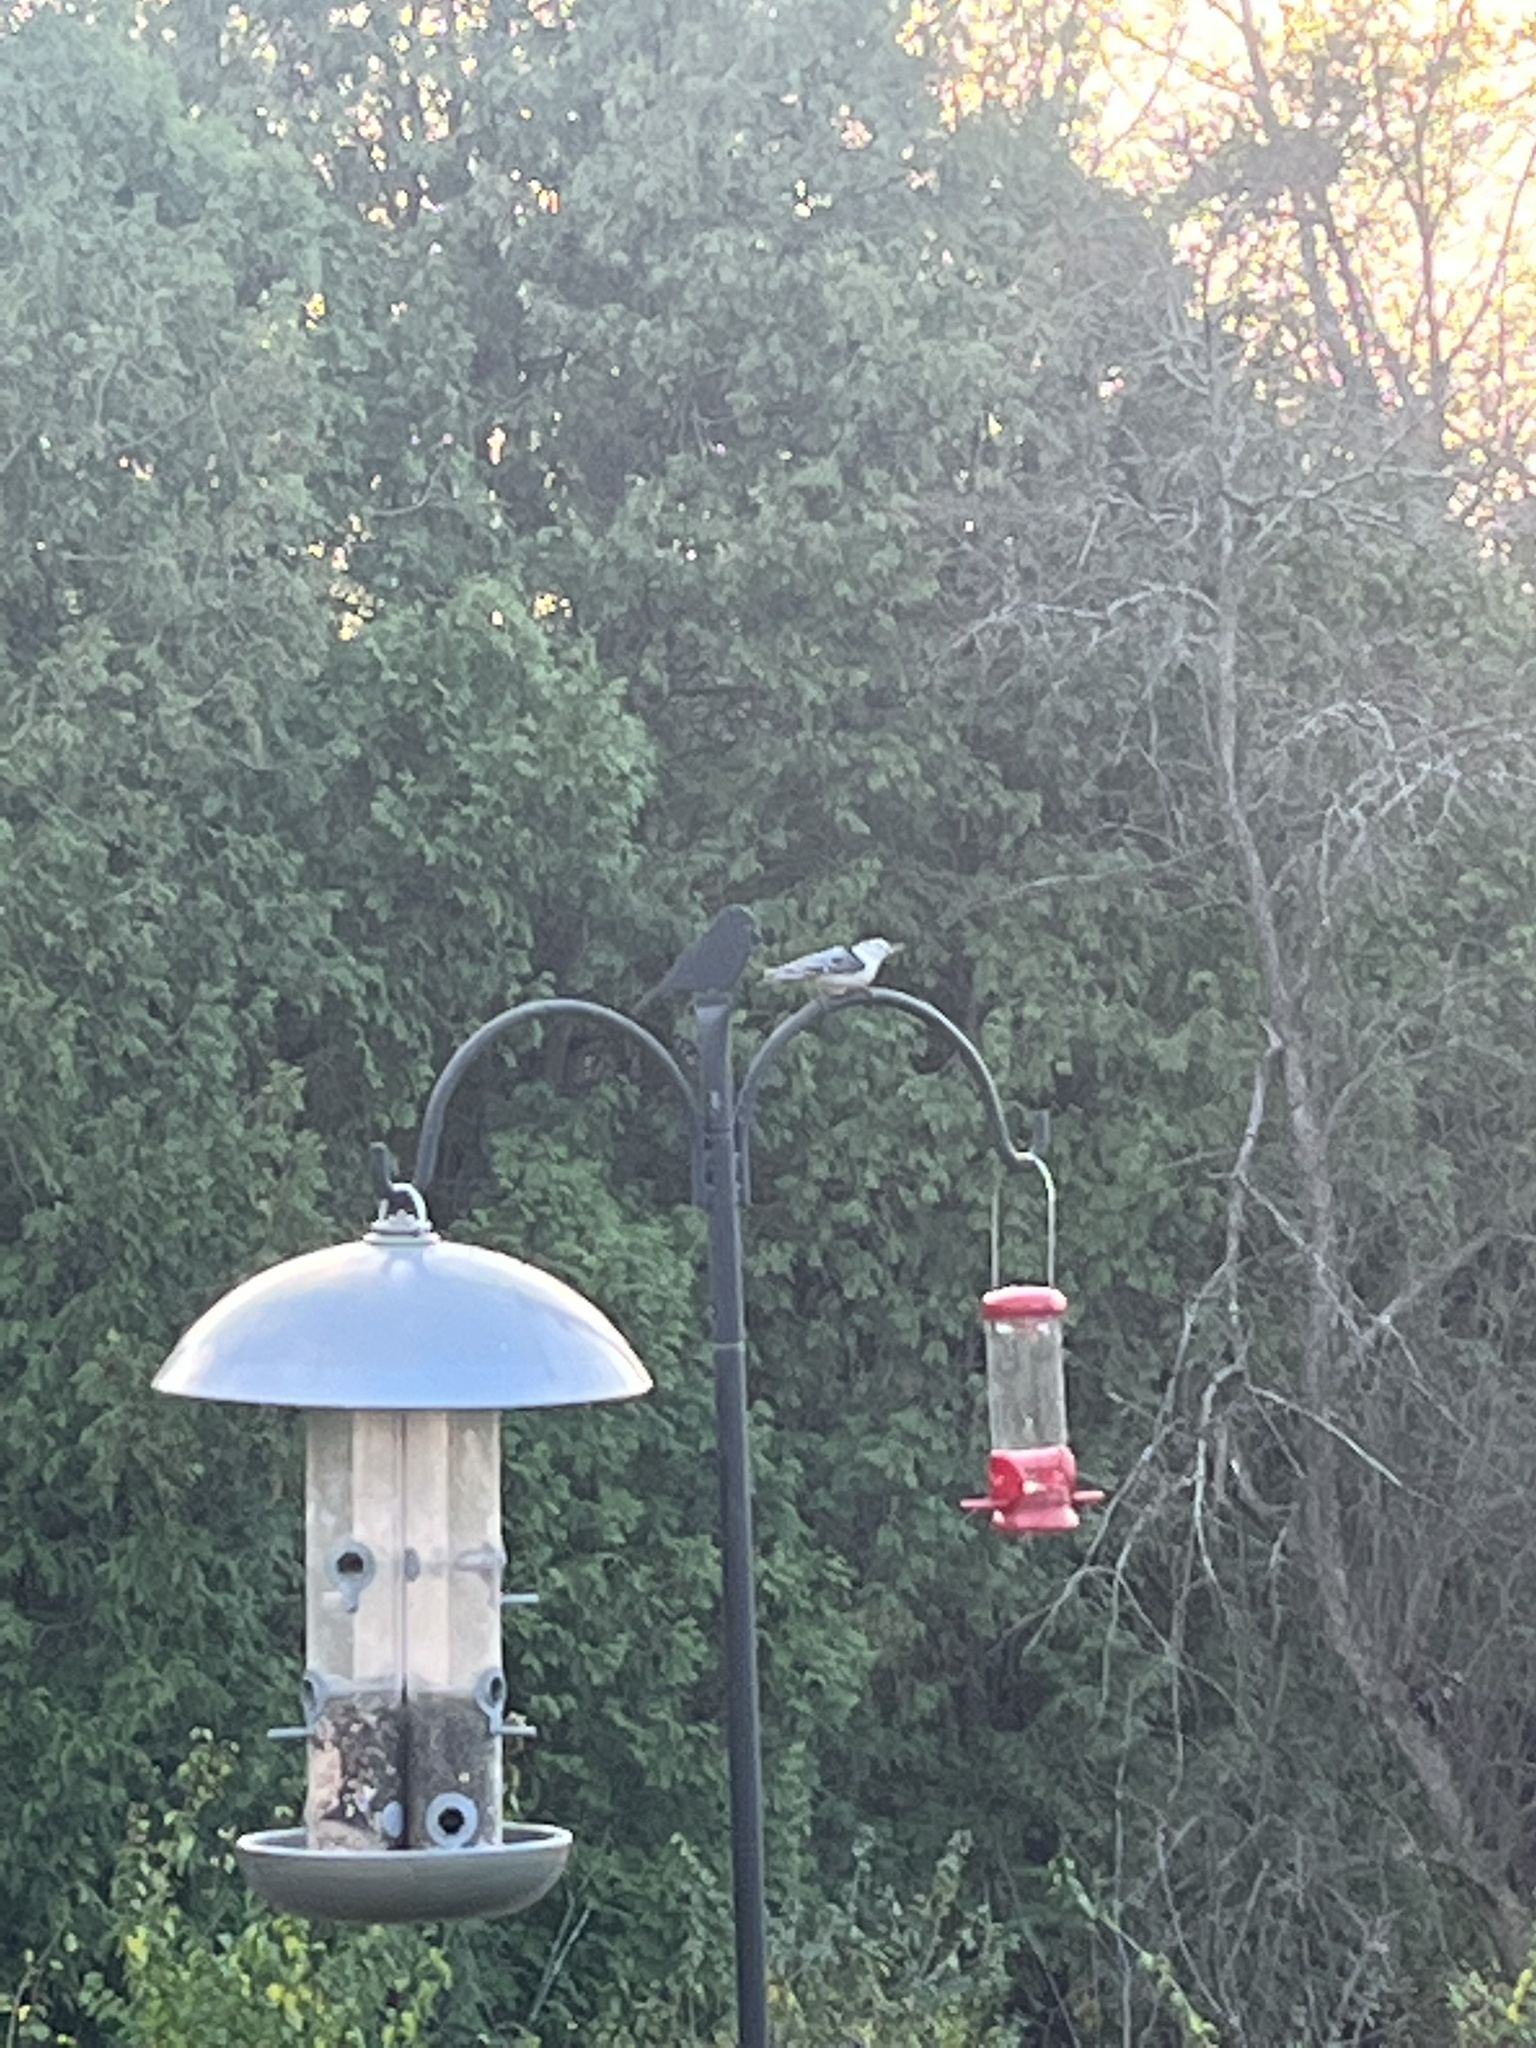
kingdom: Animalia
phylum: Chordata
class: Aves
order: Passeriformes
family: Sittidae
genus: Sitta
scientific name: Sitta carolinensis
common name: White-breasted nuthatch
